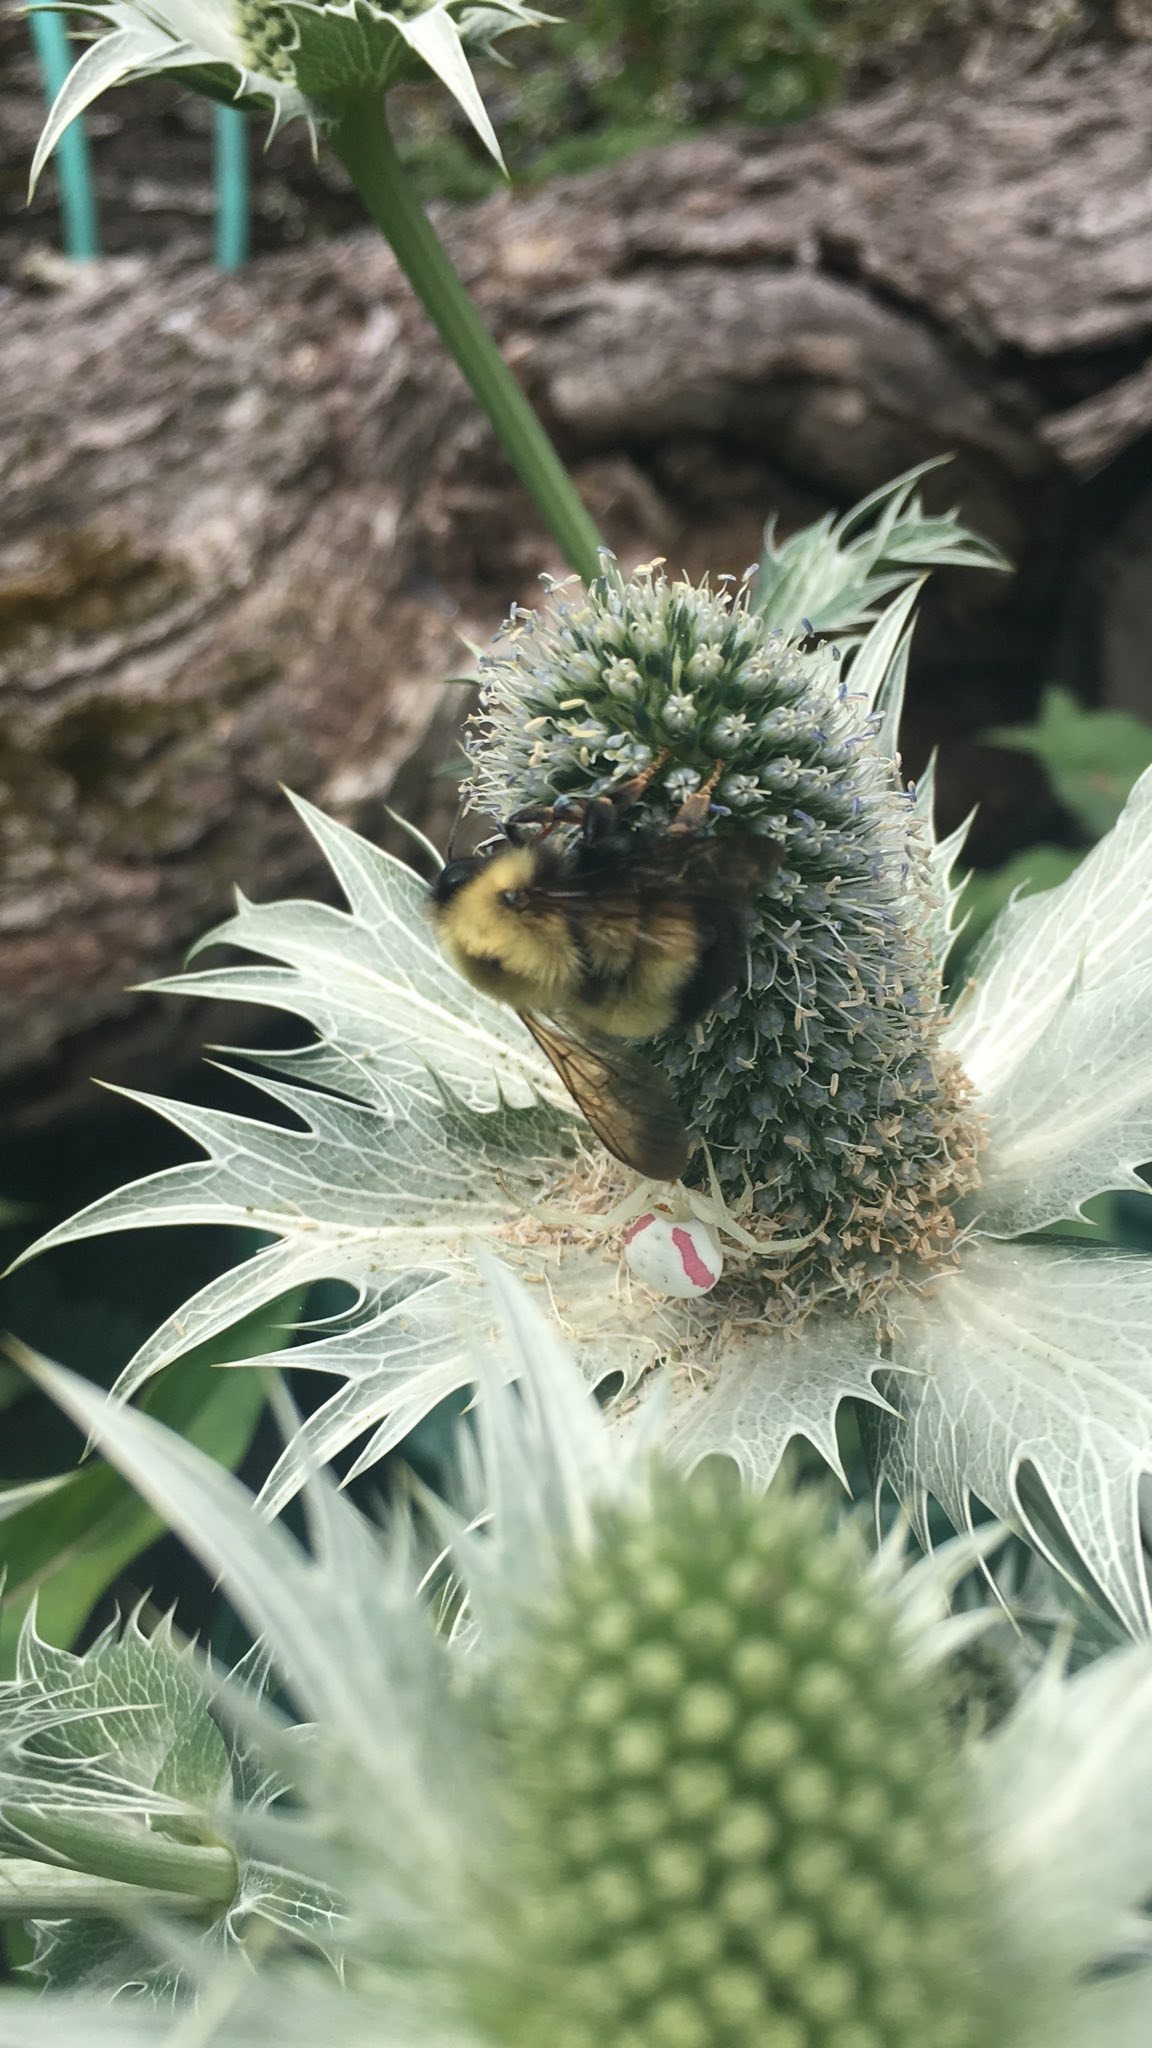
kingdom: Animalia
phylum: Arthropoda
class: Insecta
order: Hymenoptera
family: Apidae
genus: Bombus
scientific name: Bombus perplexus
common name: Confusing bumble bee
